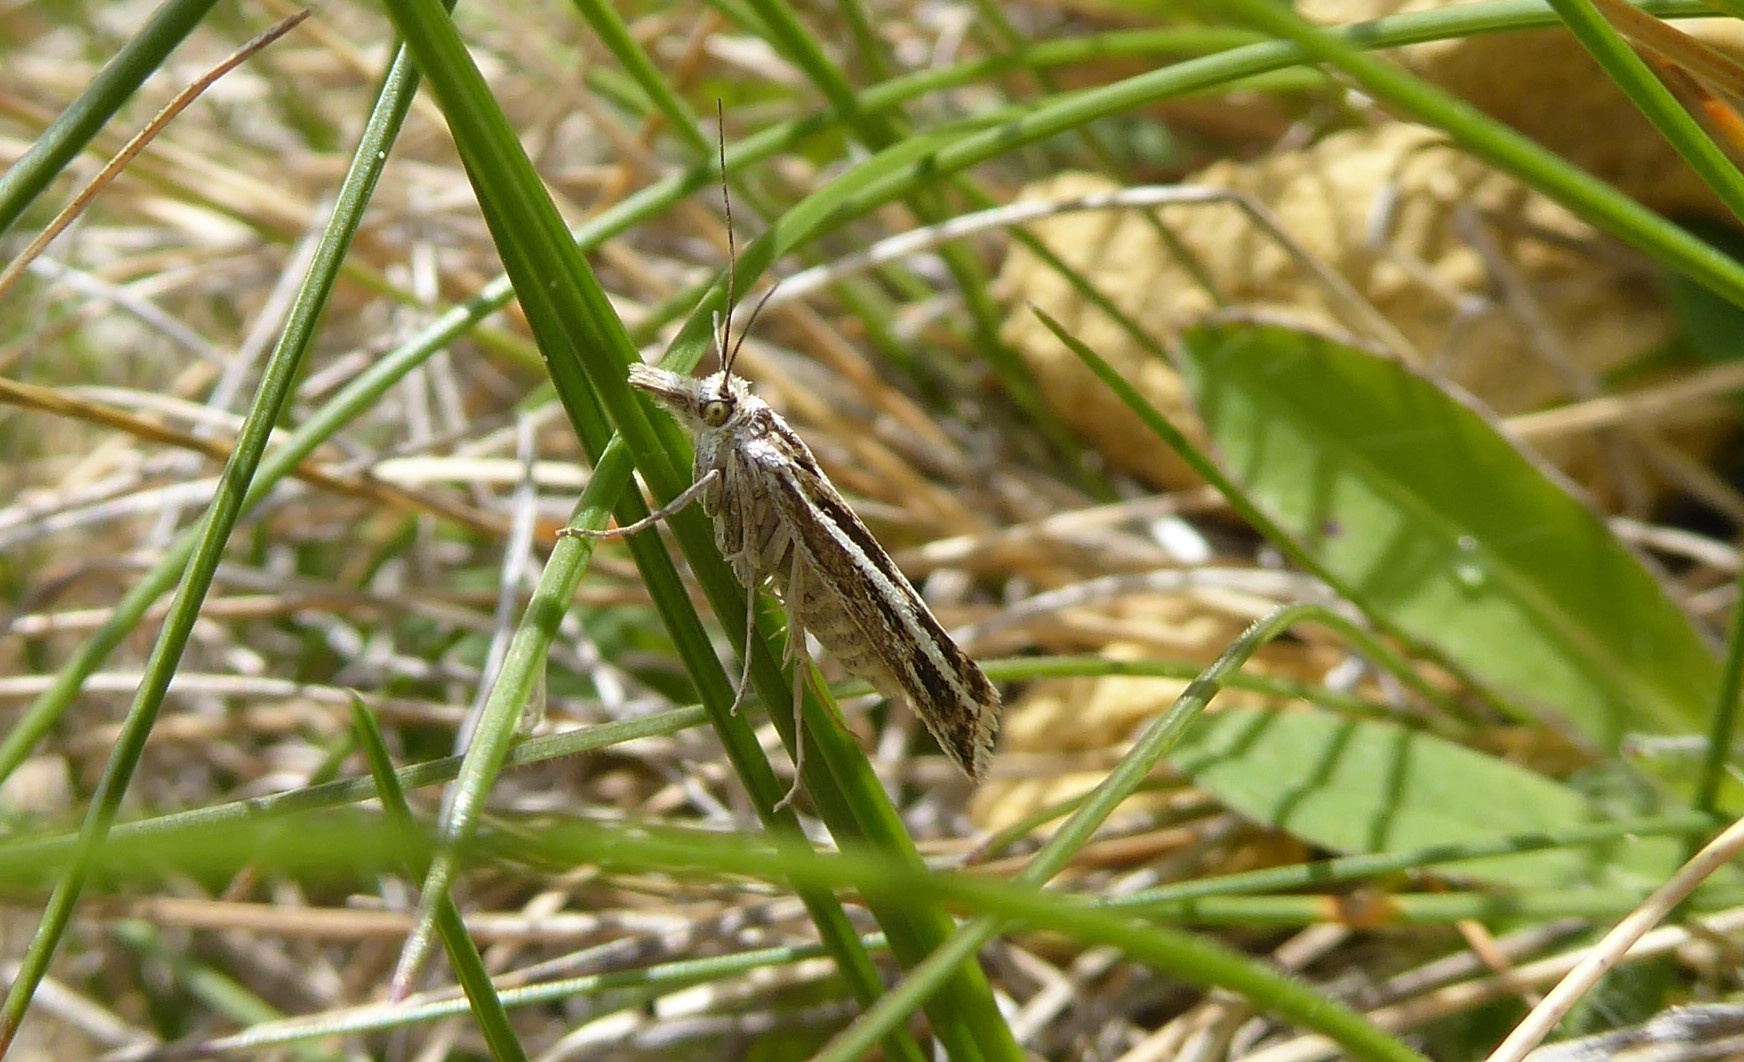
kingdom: Animalia
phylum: Arthropoda
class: Insecta
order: Lepidoptera
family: Crambidae
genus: Orocrambus
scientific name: Orocrambus corruptus
